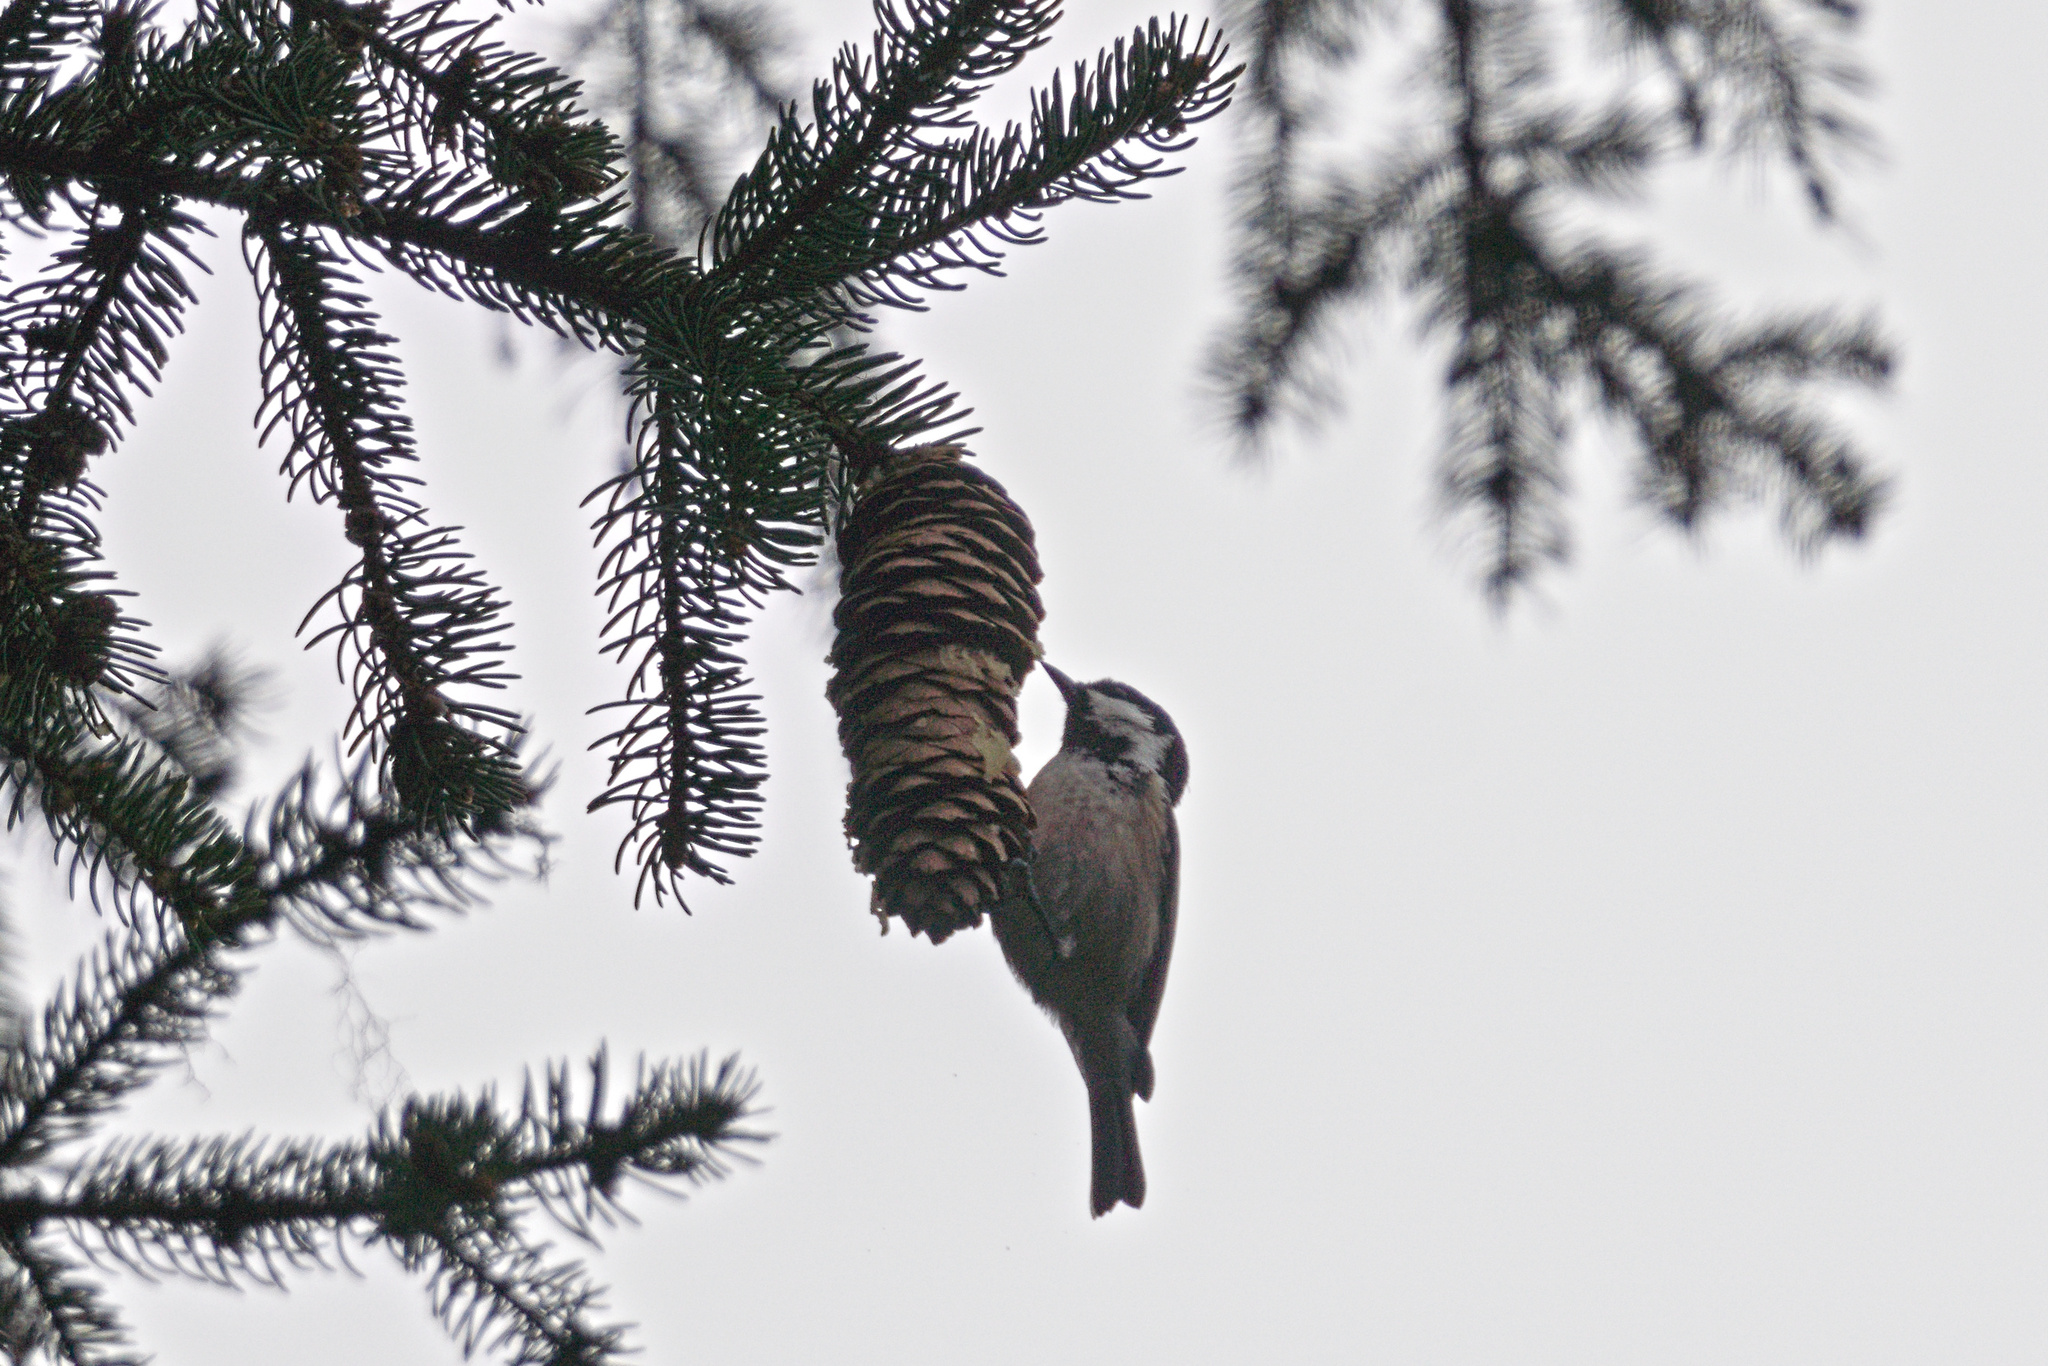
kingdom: Animalia
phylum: Chordata
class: Aves
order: Passeriformes
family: Paridae
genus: Periparus
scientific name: Periparus ater
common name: Coal tit
